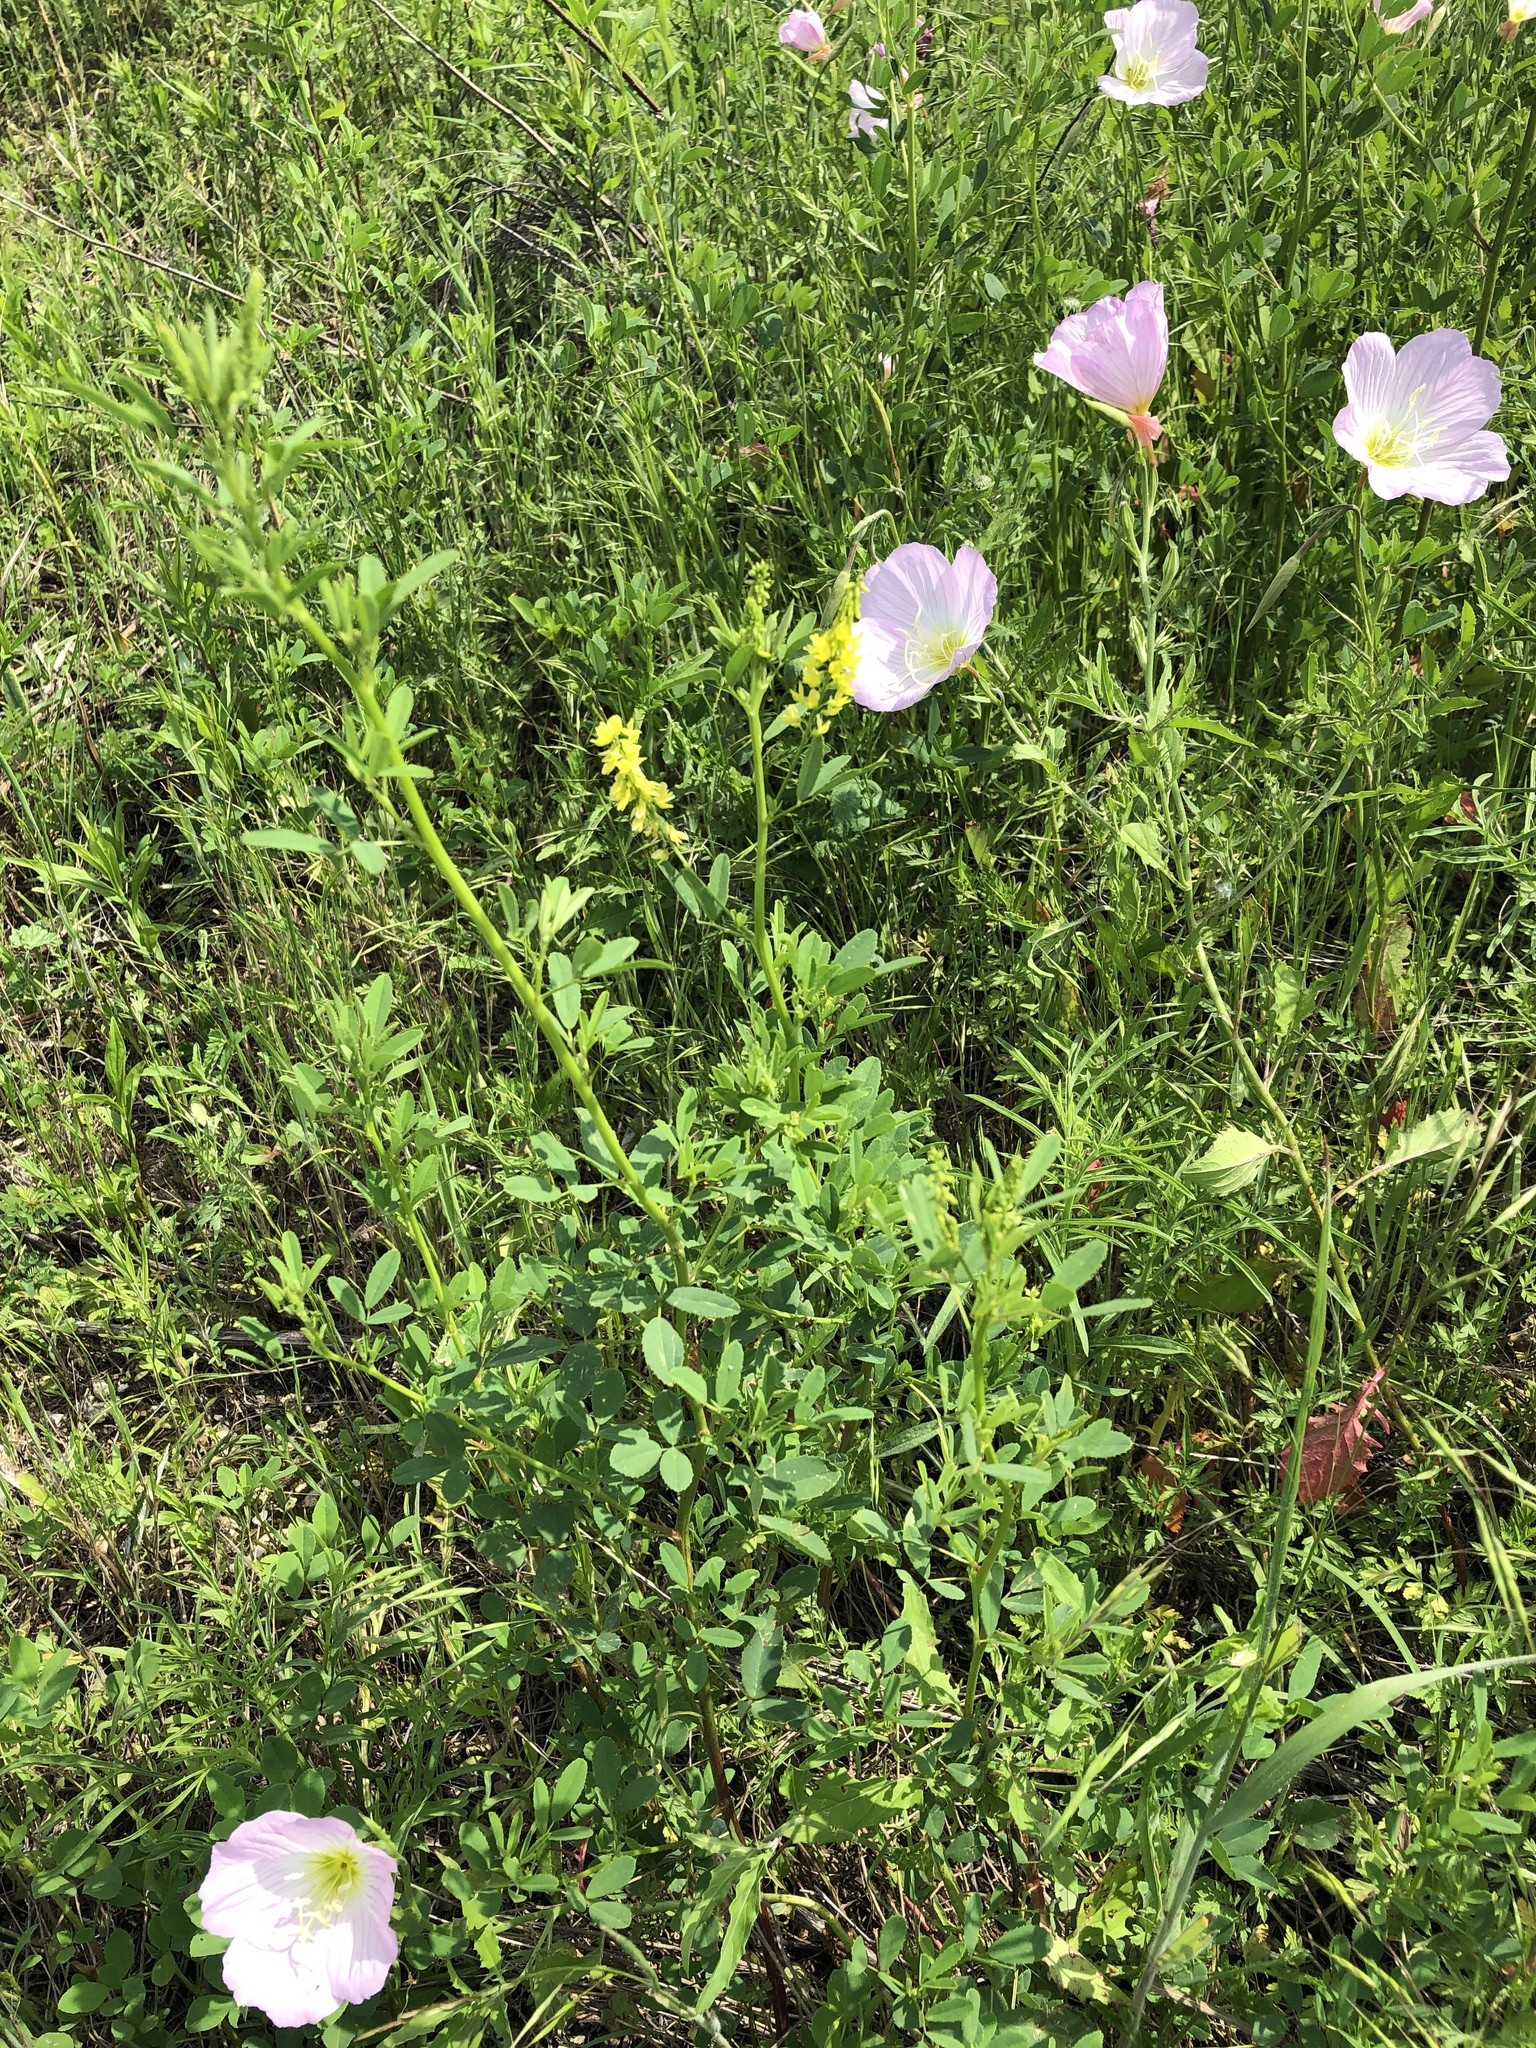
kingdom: Plantae
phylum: Tracheophyta
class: Magnoliopsida
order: Fabales
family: Fabaceae
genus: Melilotus
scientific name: Melilotus officinalis
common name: Sweetclover
